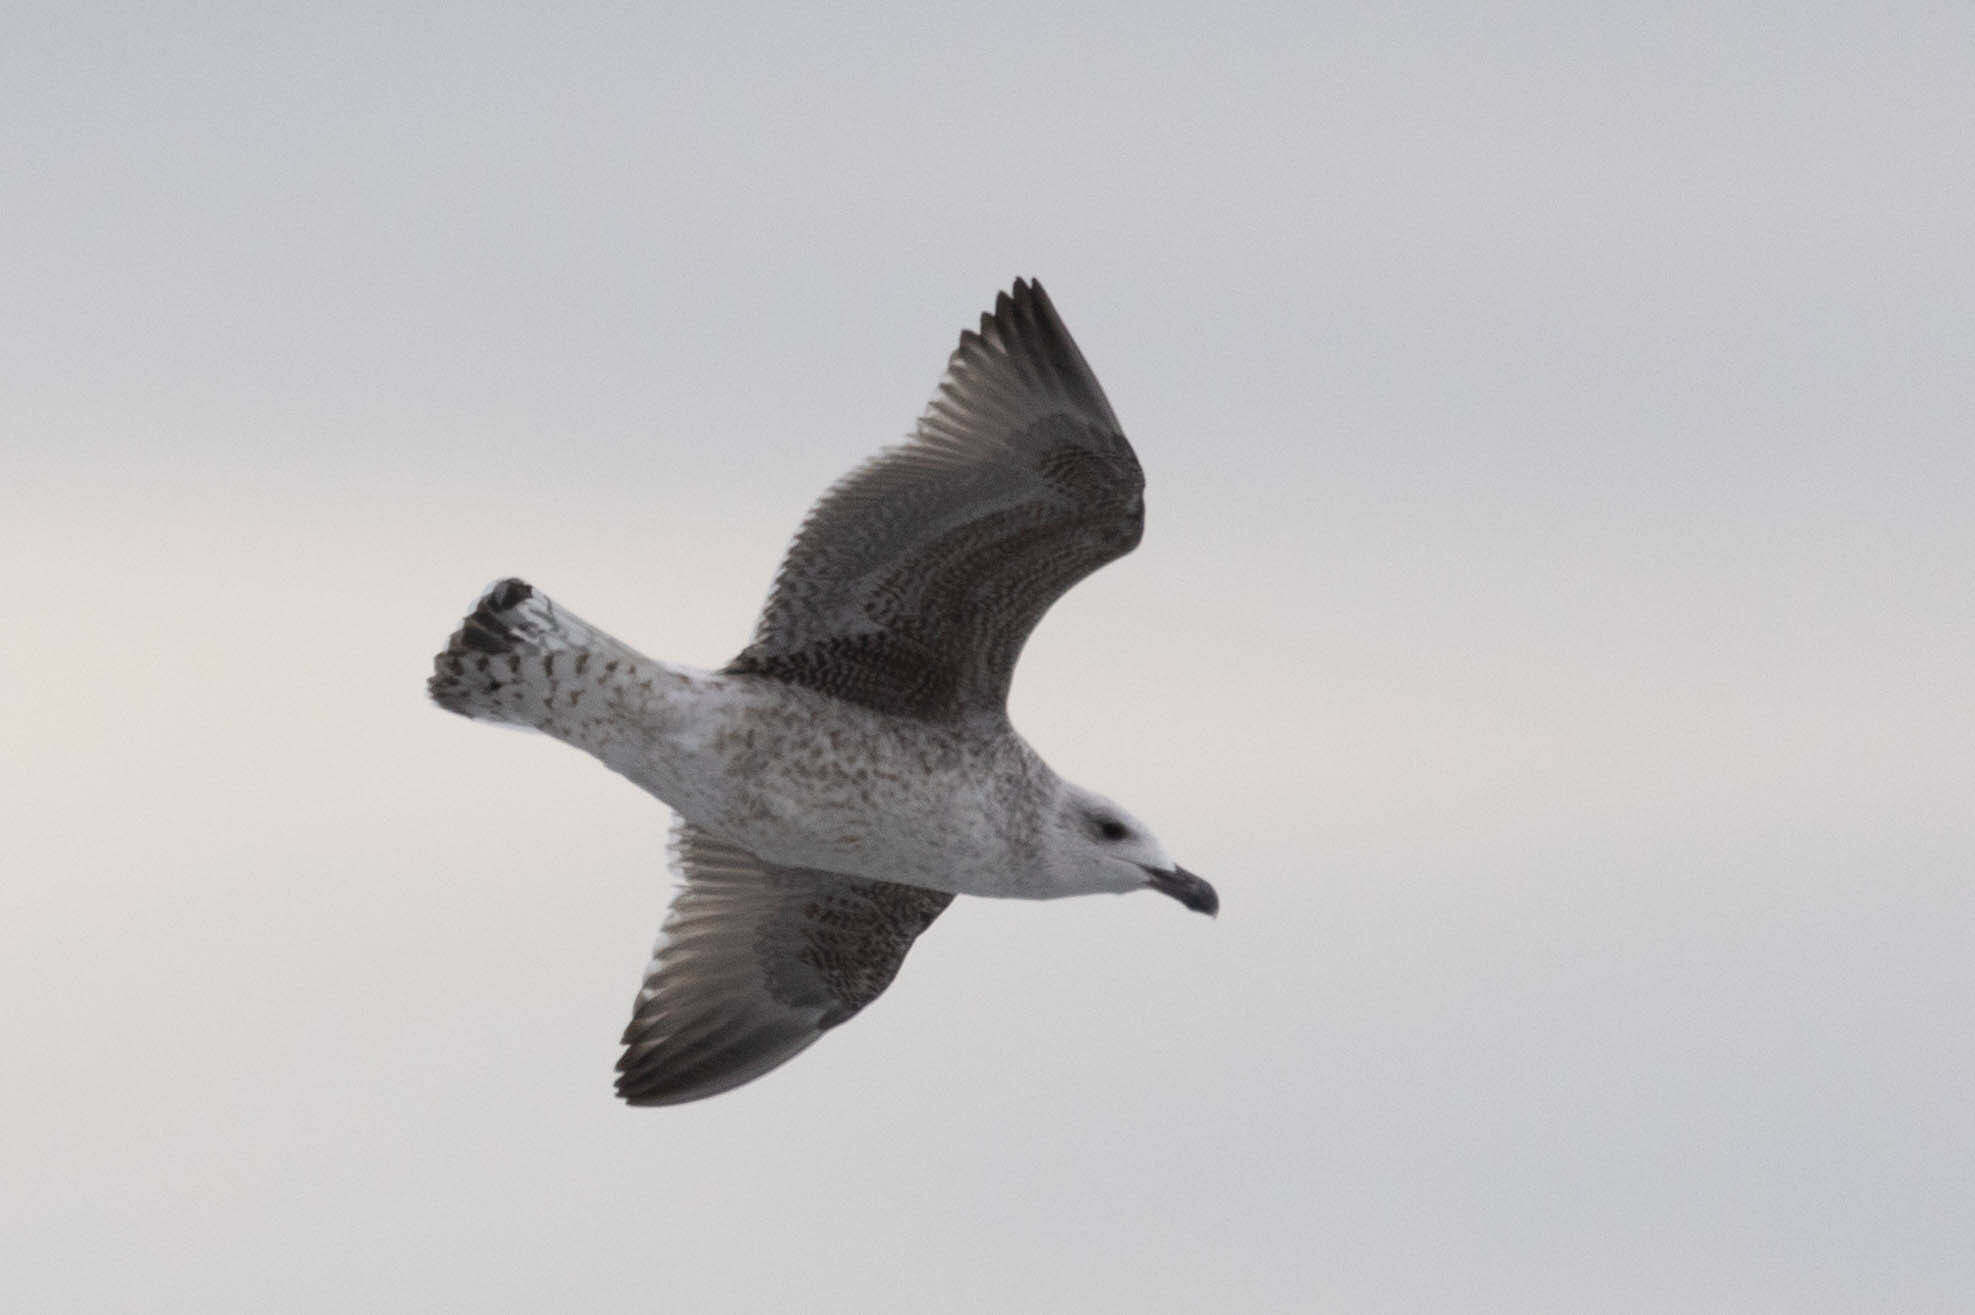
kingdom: Animalia
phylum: Chordata
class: Aves
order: Charadriiformes
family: Laridae
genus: Larus
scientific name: Larus marinus
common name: Great black-backed gull
